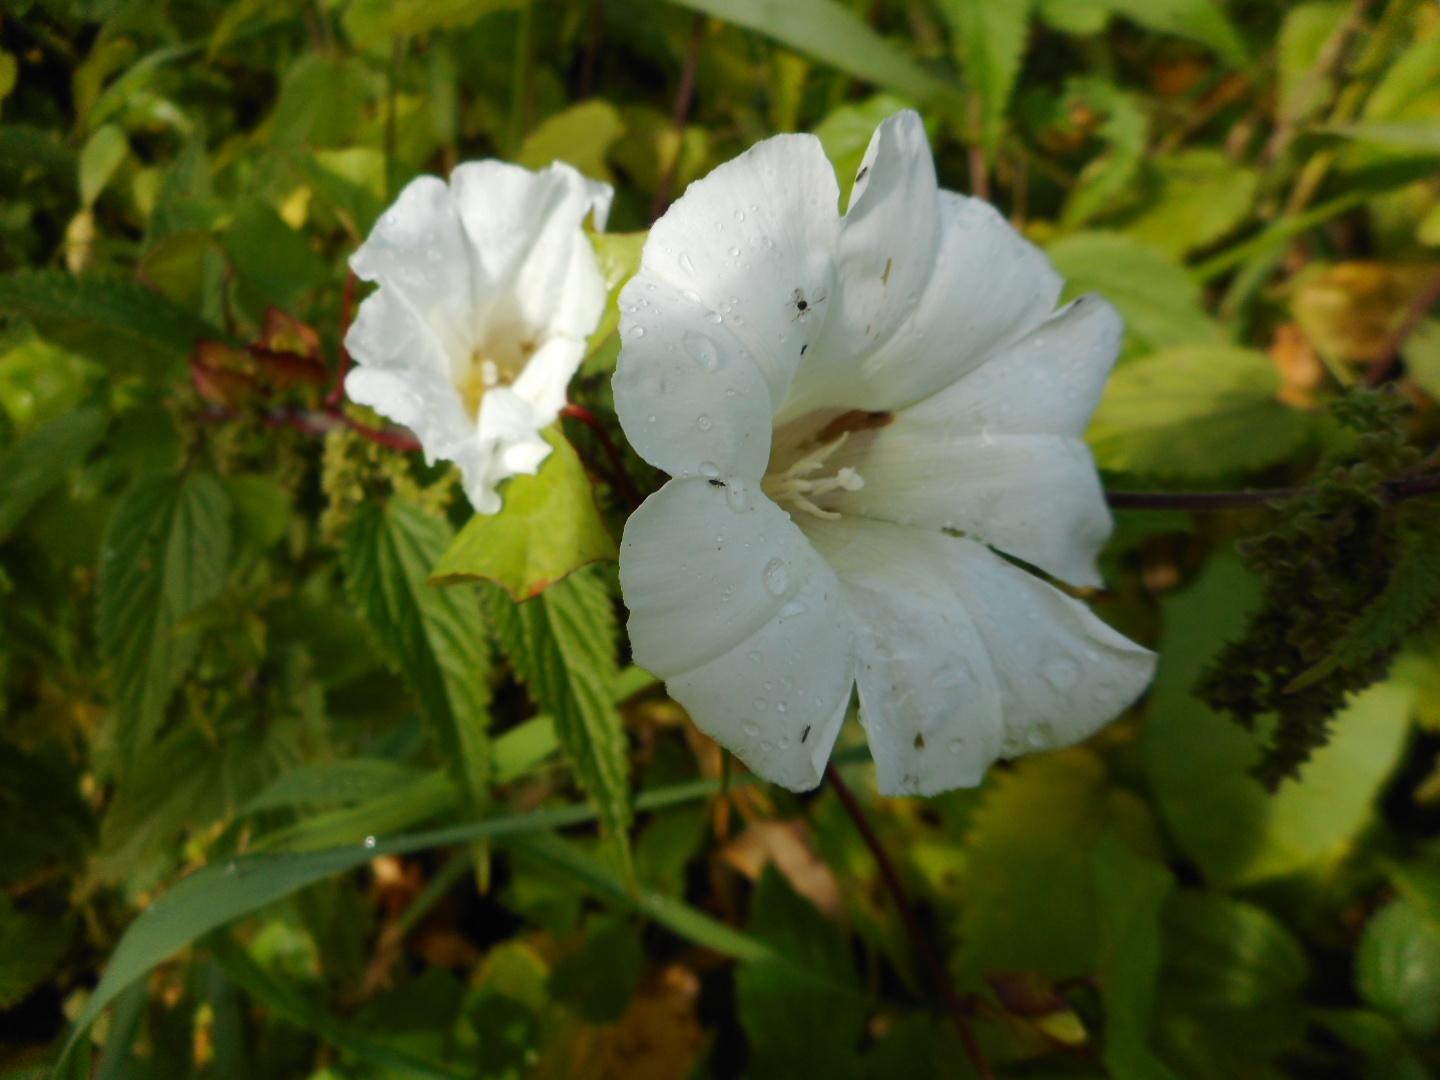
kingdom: Plantae
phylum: Tracheophyta
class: Magnoliopsida
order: Solanales
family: Convolvulaceae
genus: Calystegia
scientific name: Calystegia sepium
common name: Hedge bindweed
